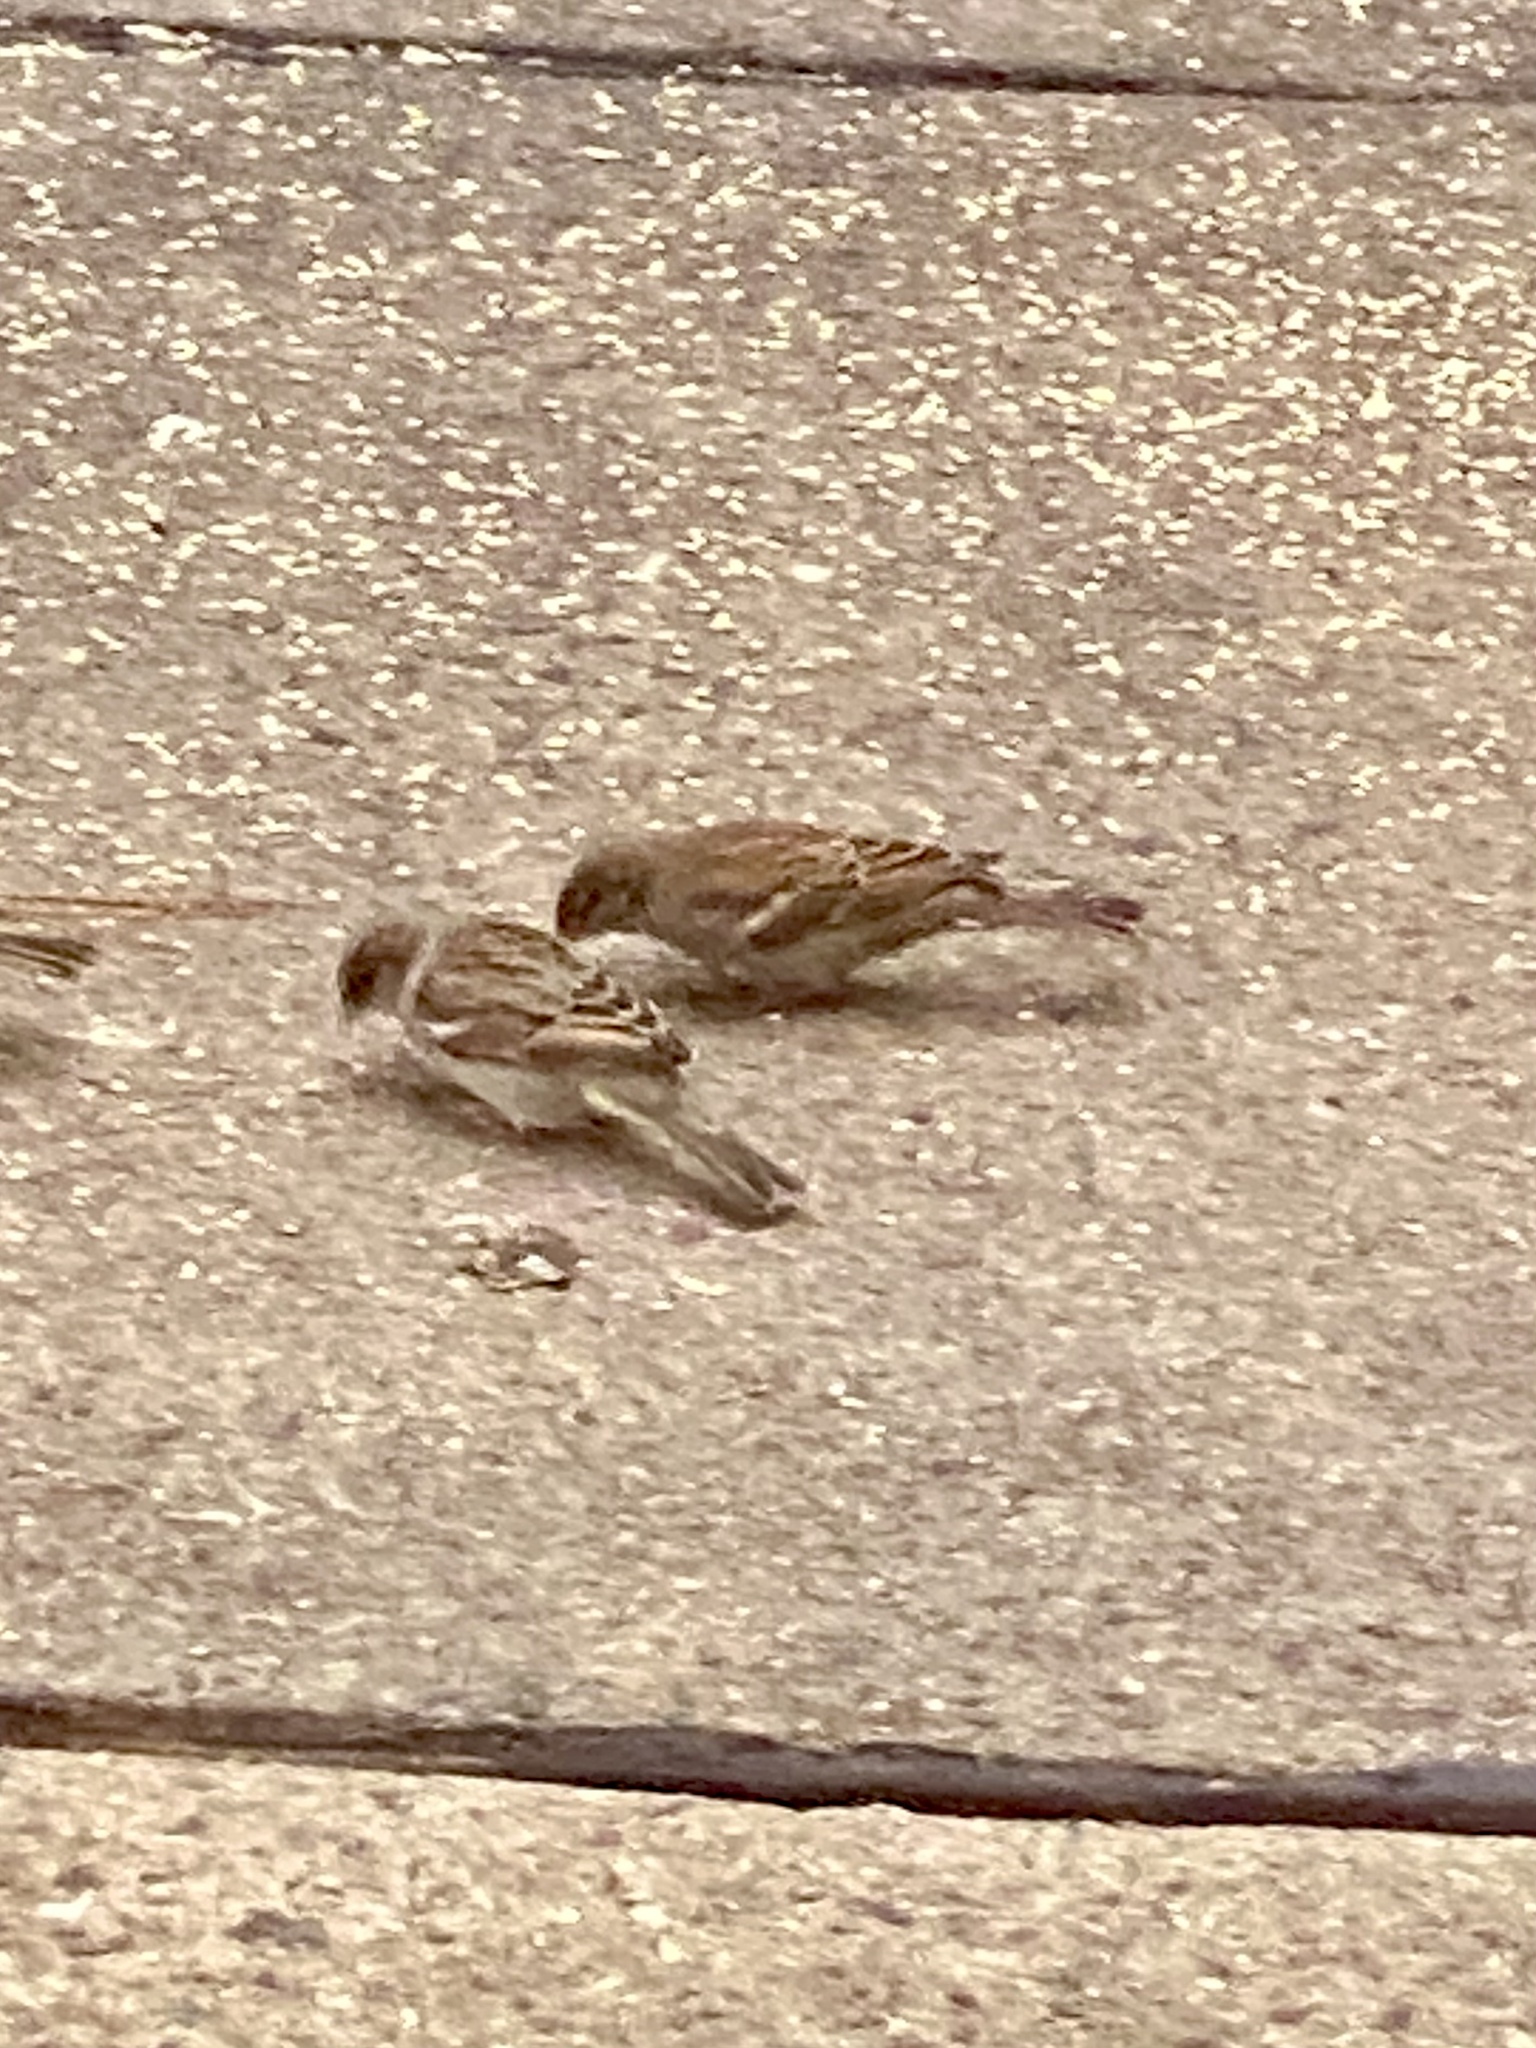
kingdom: Animalia
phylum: Chordata
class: Aves
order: Passeriformes
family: Passeridae
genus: Passer
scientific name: Passer domesticus
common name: House sparrow
